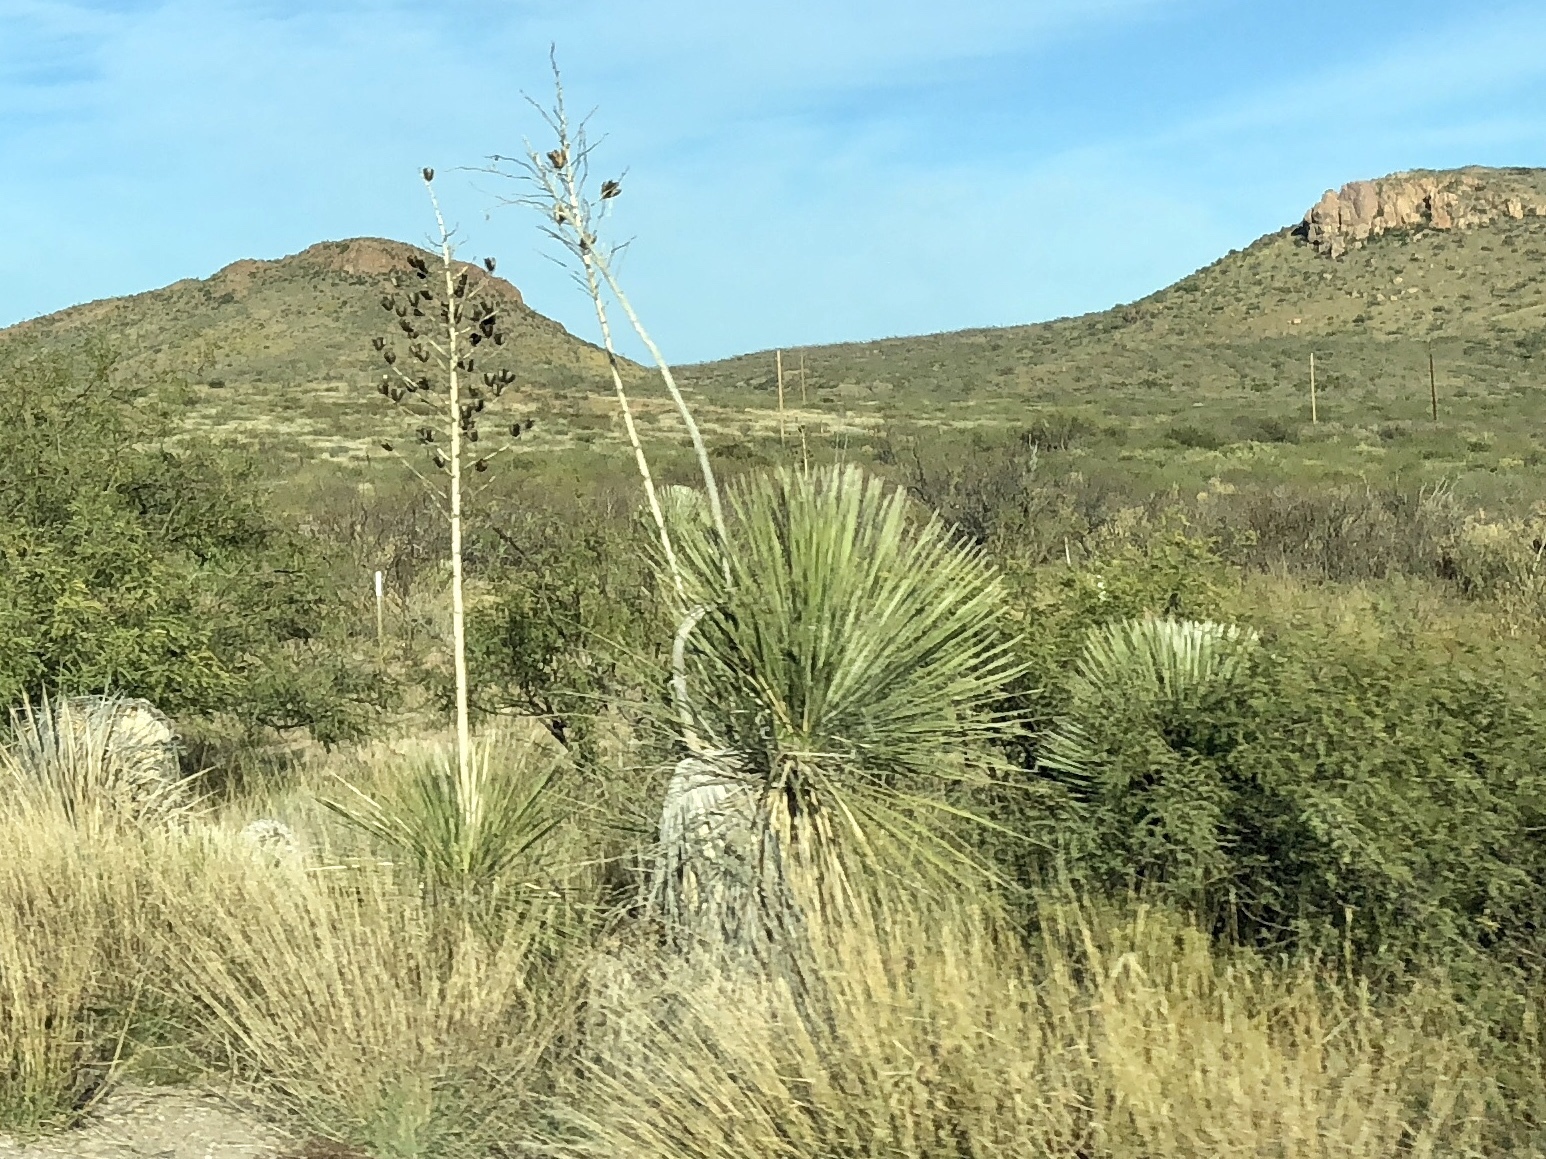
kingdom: Plantae
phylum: Tracheophyta
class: Liliopsida
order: Asparagales
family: Asparagaceae
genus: Yucca
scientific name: Yucca elata
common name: Palmella
